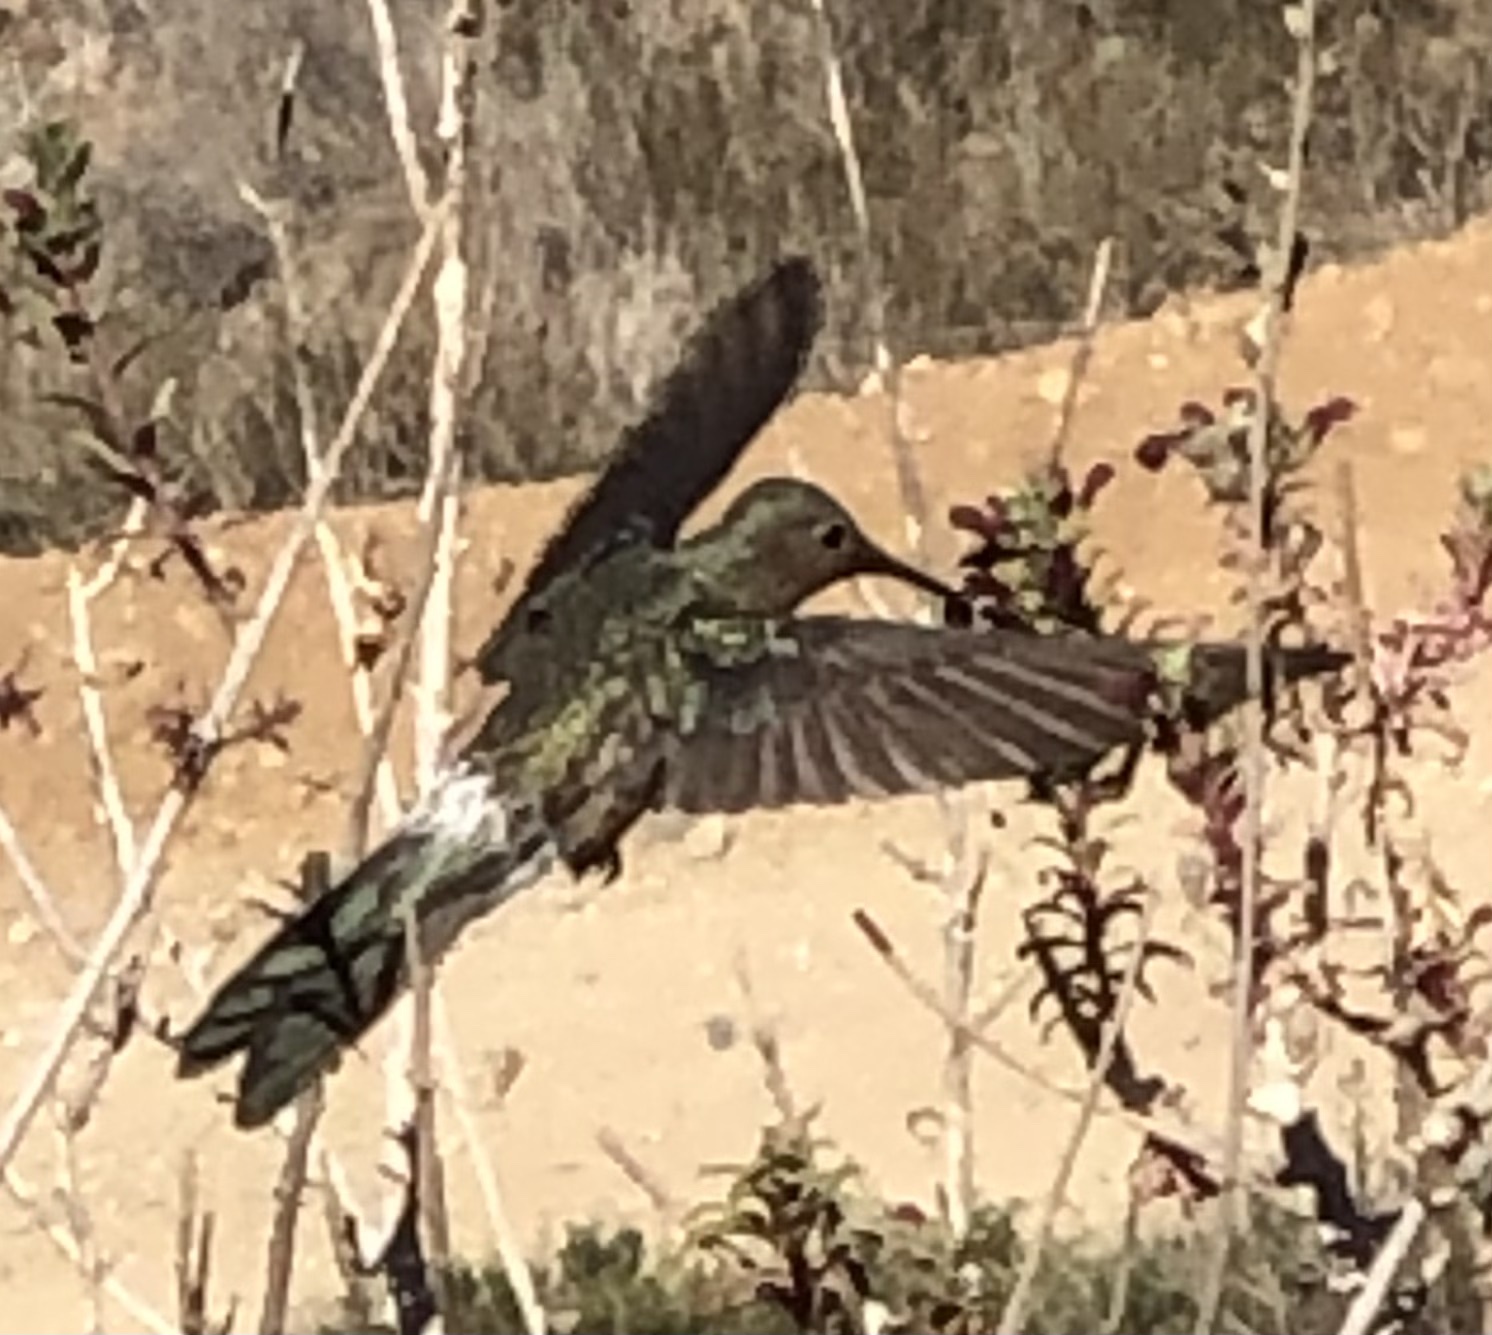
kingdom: Animalia
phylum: Chordata
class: Aves
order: Apodiformes
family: Trochilidae
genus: Patagona
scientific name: Patagona gigas
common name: Giant hummingbird
